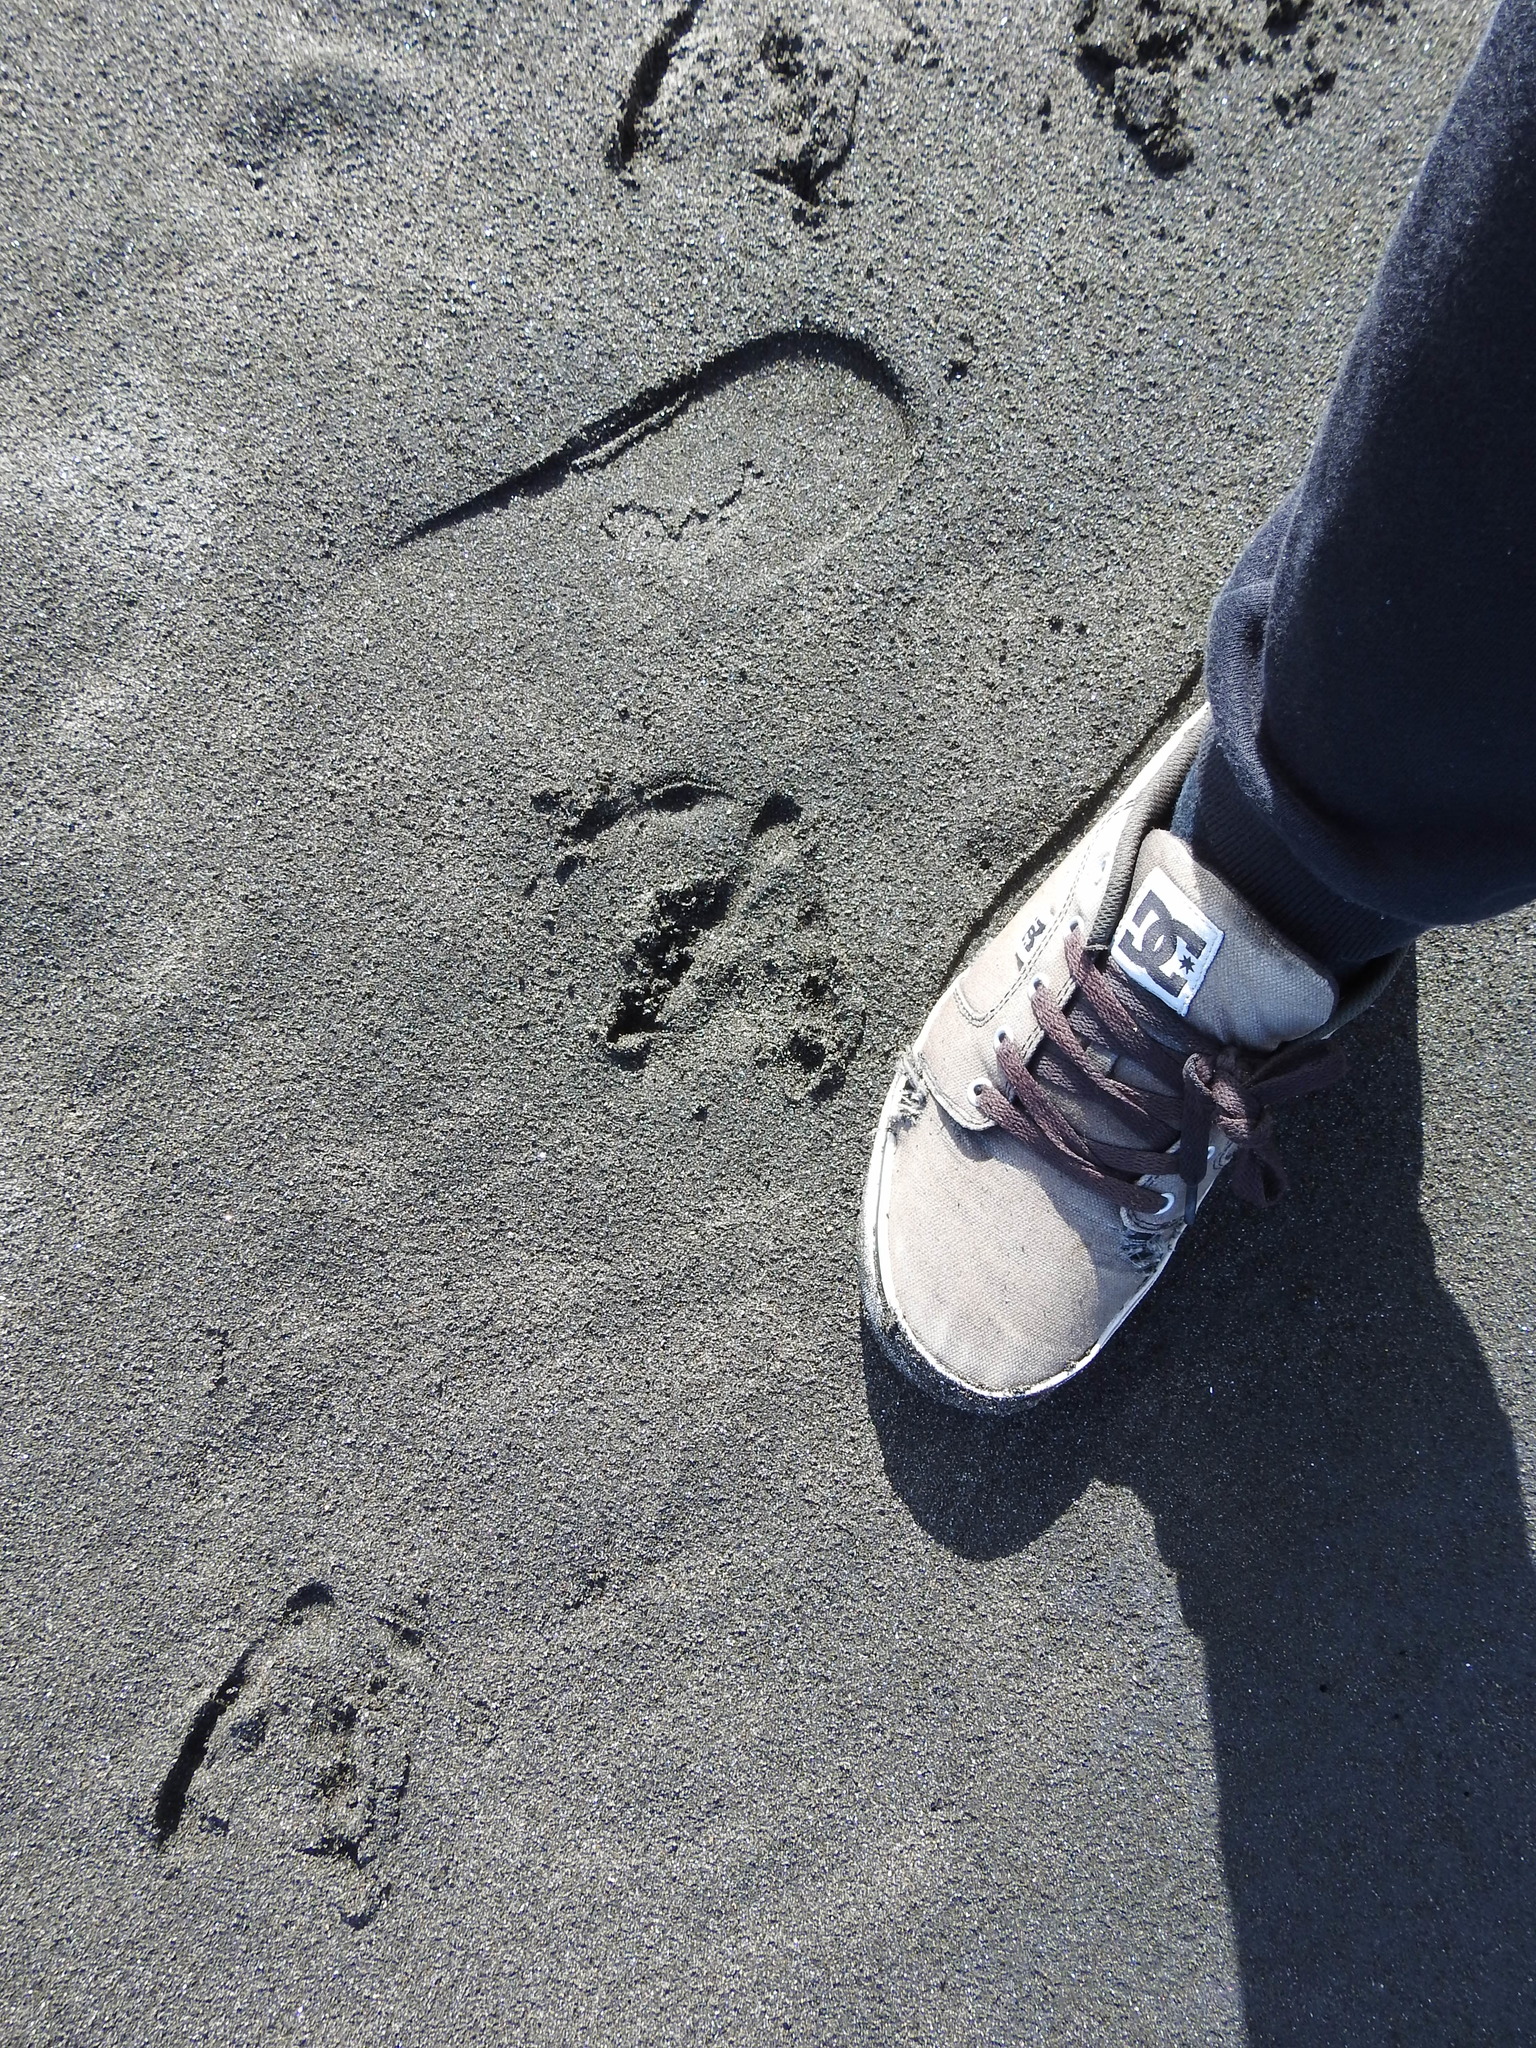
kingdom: Animalia
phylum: Chordata
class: Aves
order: Anseriformes
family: Anatidae
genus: Branta
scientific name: Branta canadensis
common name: Canada goose
